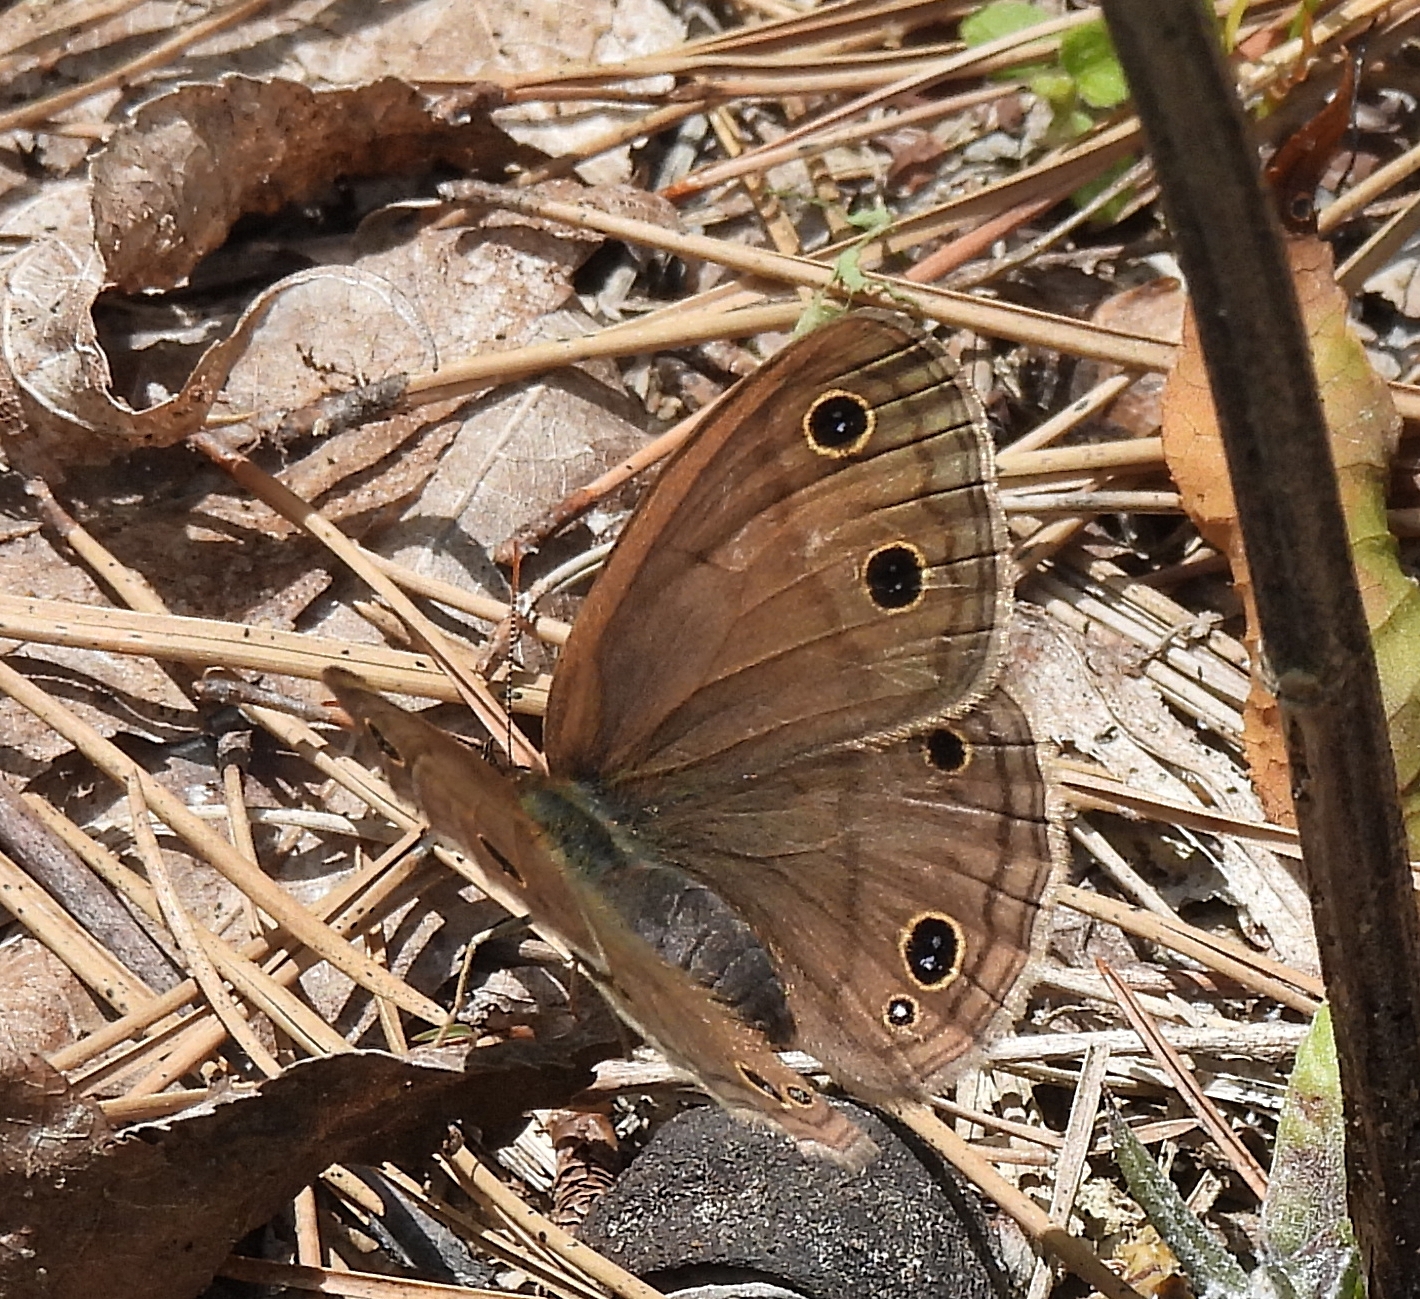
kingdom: Animalia
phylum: Arthropoda
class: Insecta
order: Lepidoptera
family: Nymphalidae
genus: Euptychia
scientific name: Euptychia cymela
